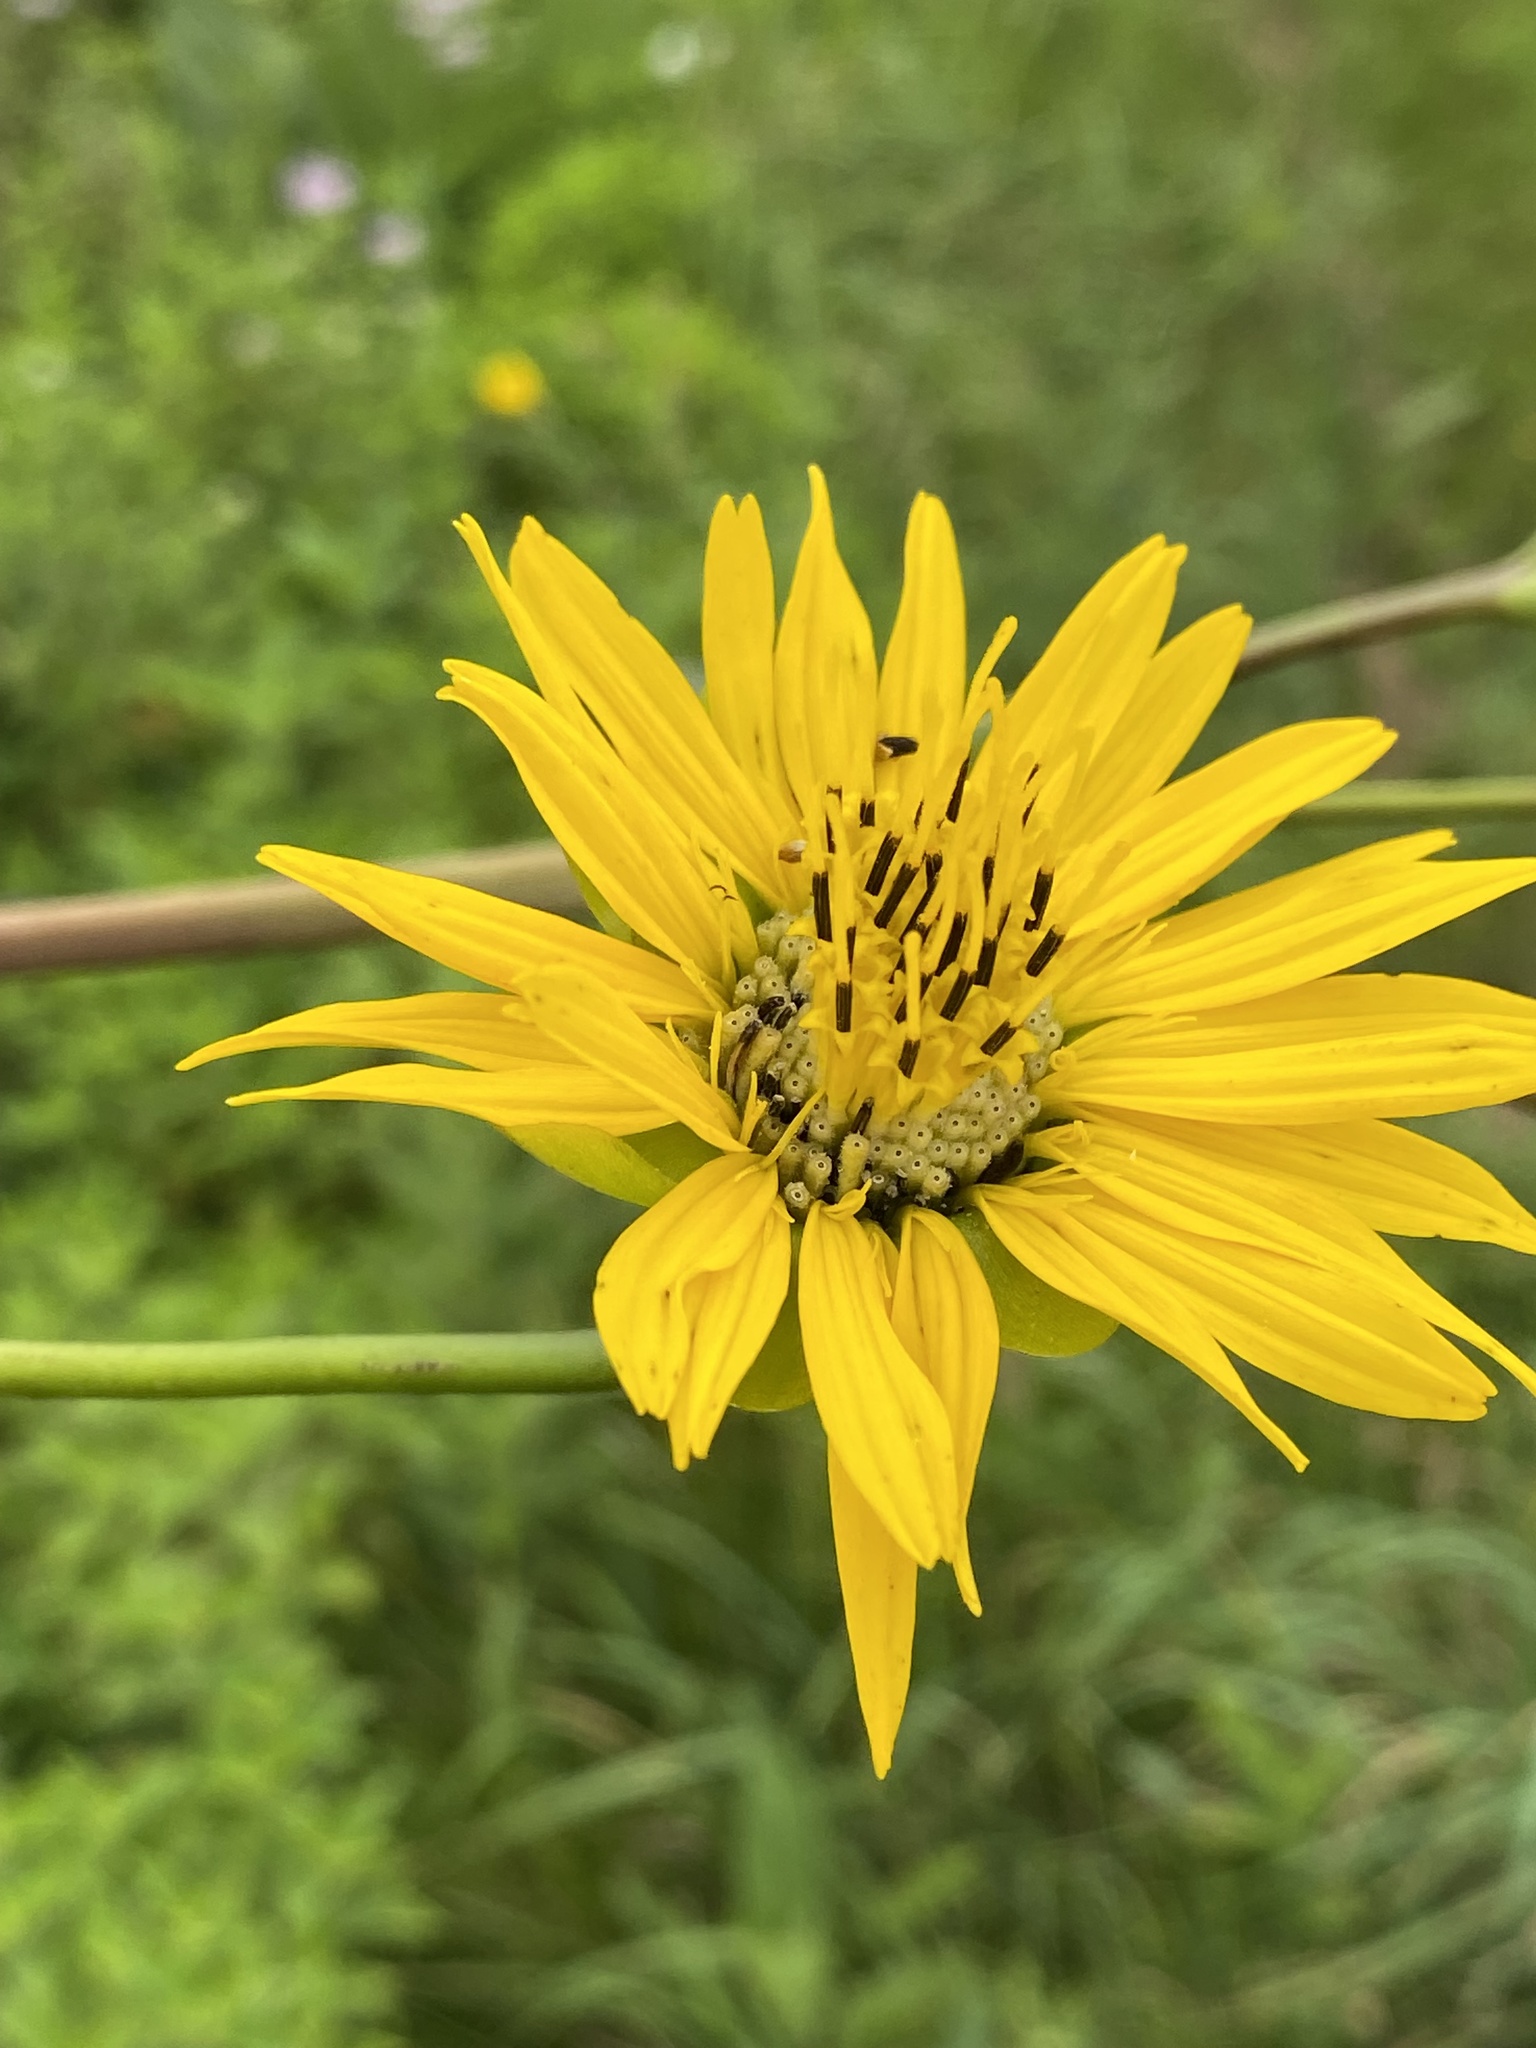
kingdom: Plantae
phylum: Tracheophyta
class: Magnoliopsida
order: Asterales
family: Asteraceae
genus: Silphium
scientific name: Silphium terebinthinaceum
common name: Basal-leaf rosinweed
